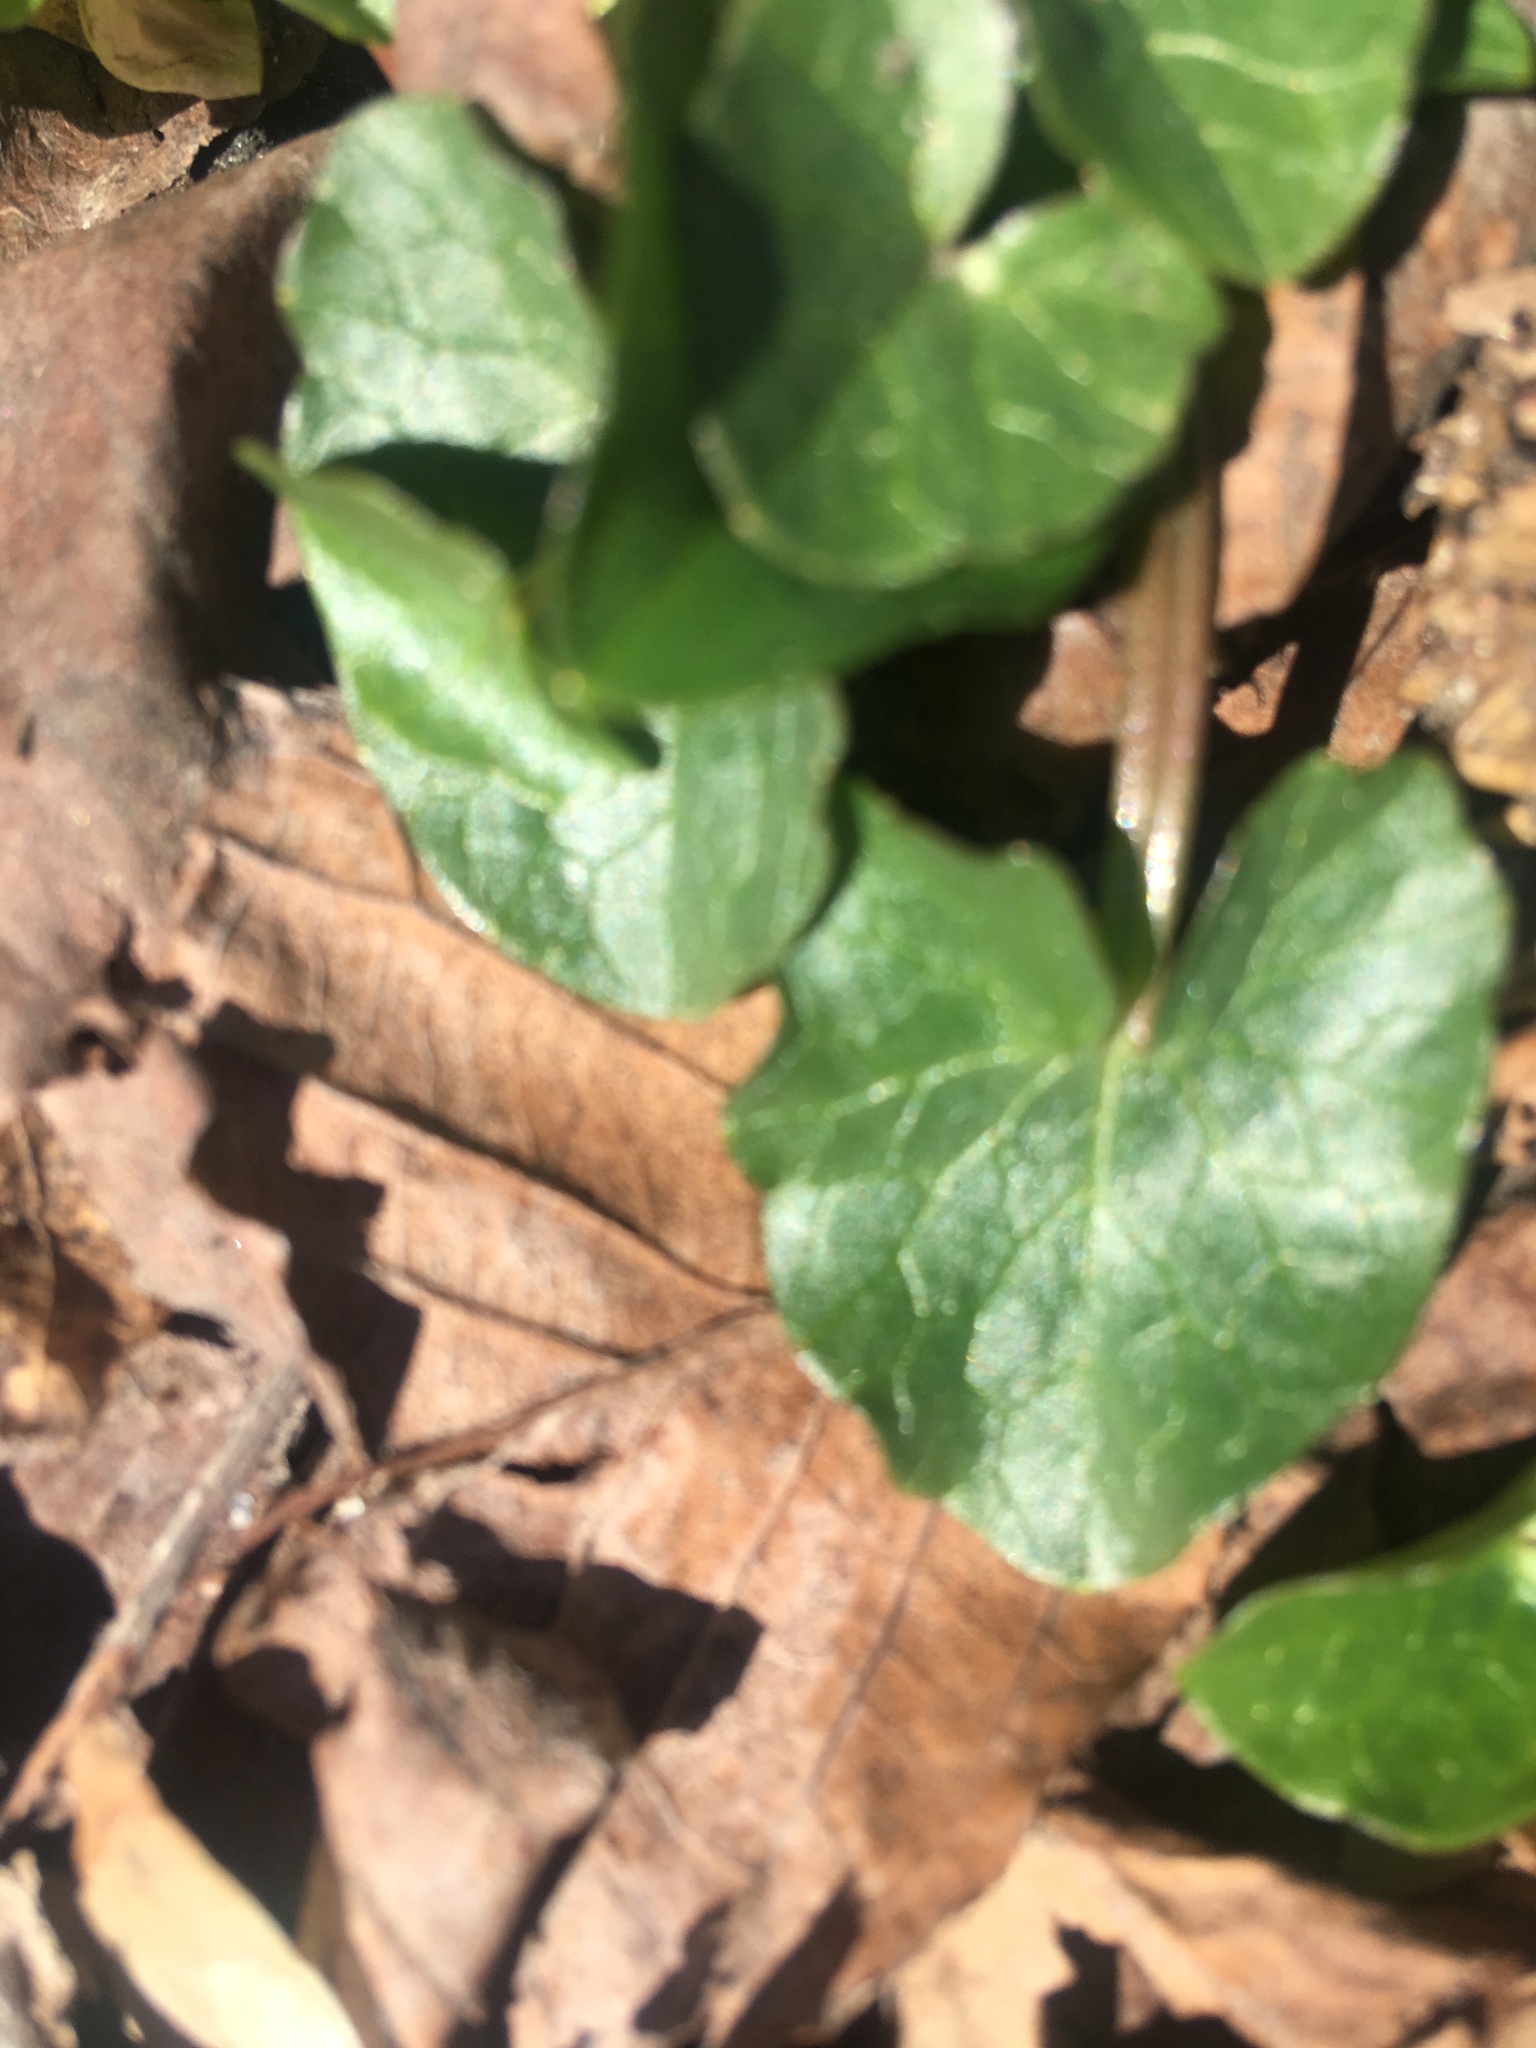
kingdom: Plantae
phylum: Tracheophyta
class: Magnoliopsida
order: Ranunculales
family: Ranunculaceae
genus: Ficaria
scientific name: Ficaria verna
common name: Lesser celandine
